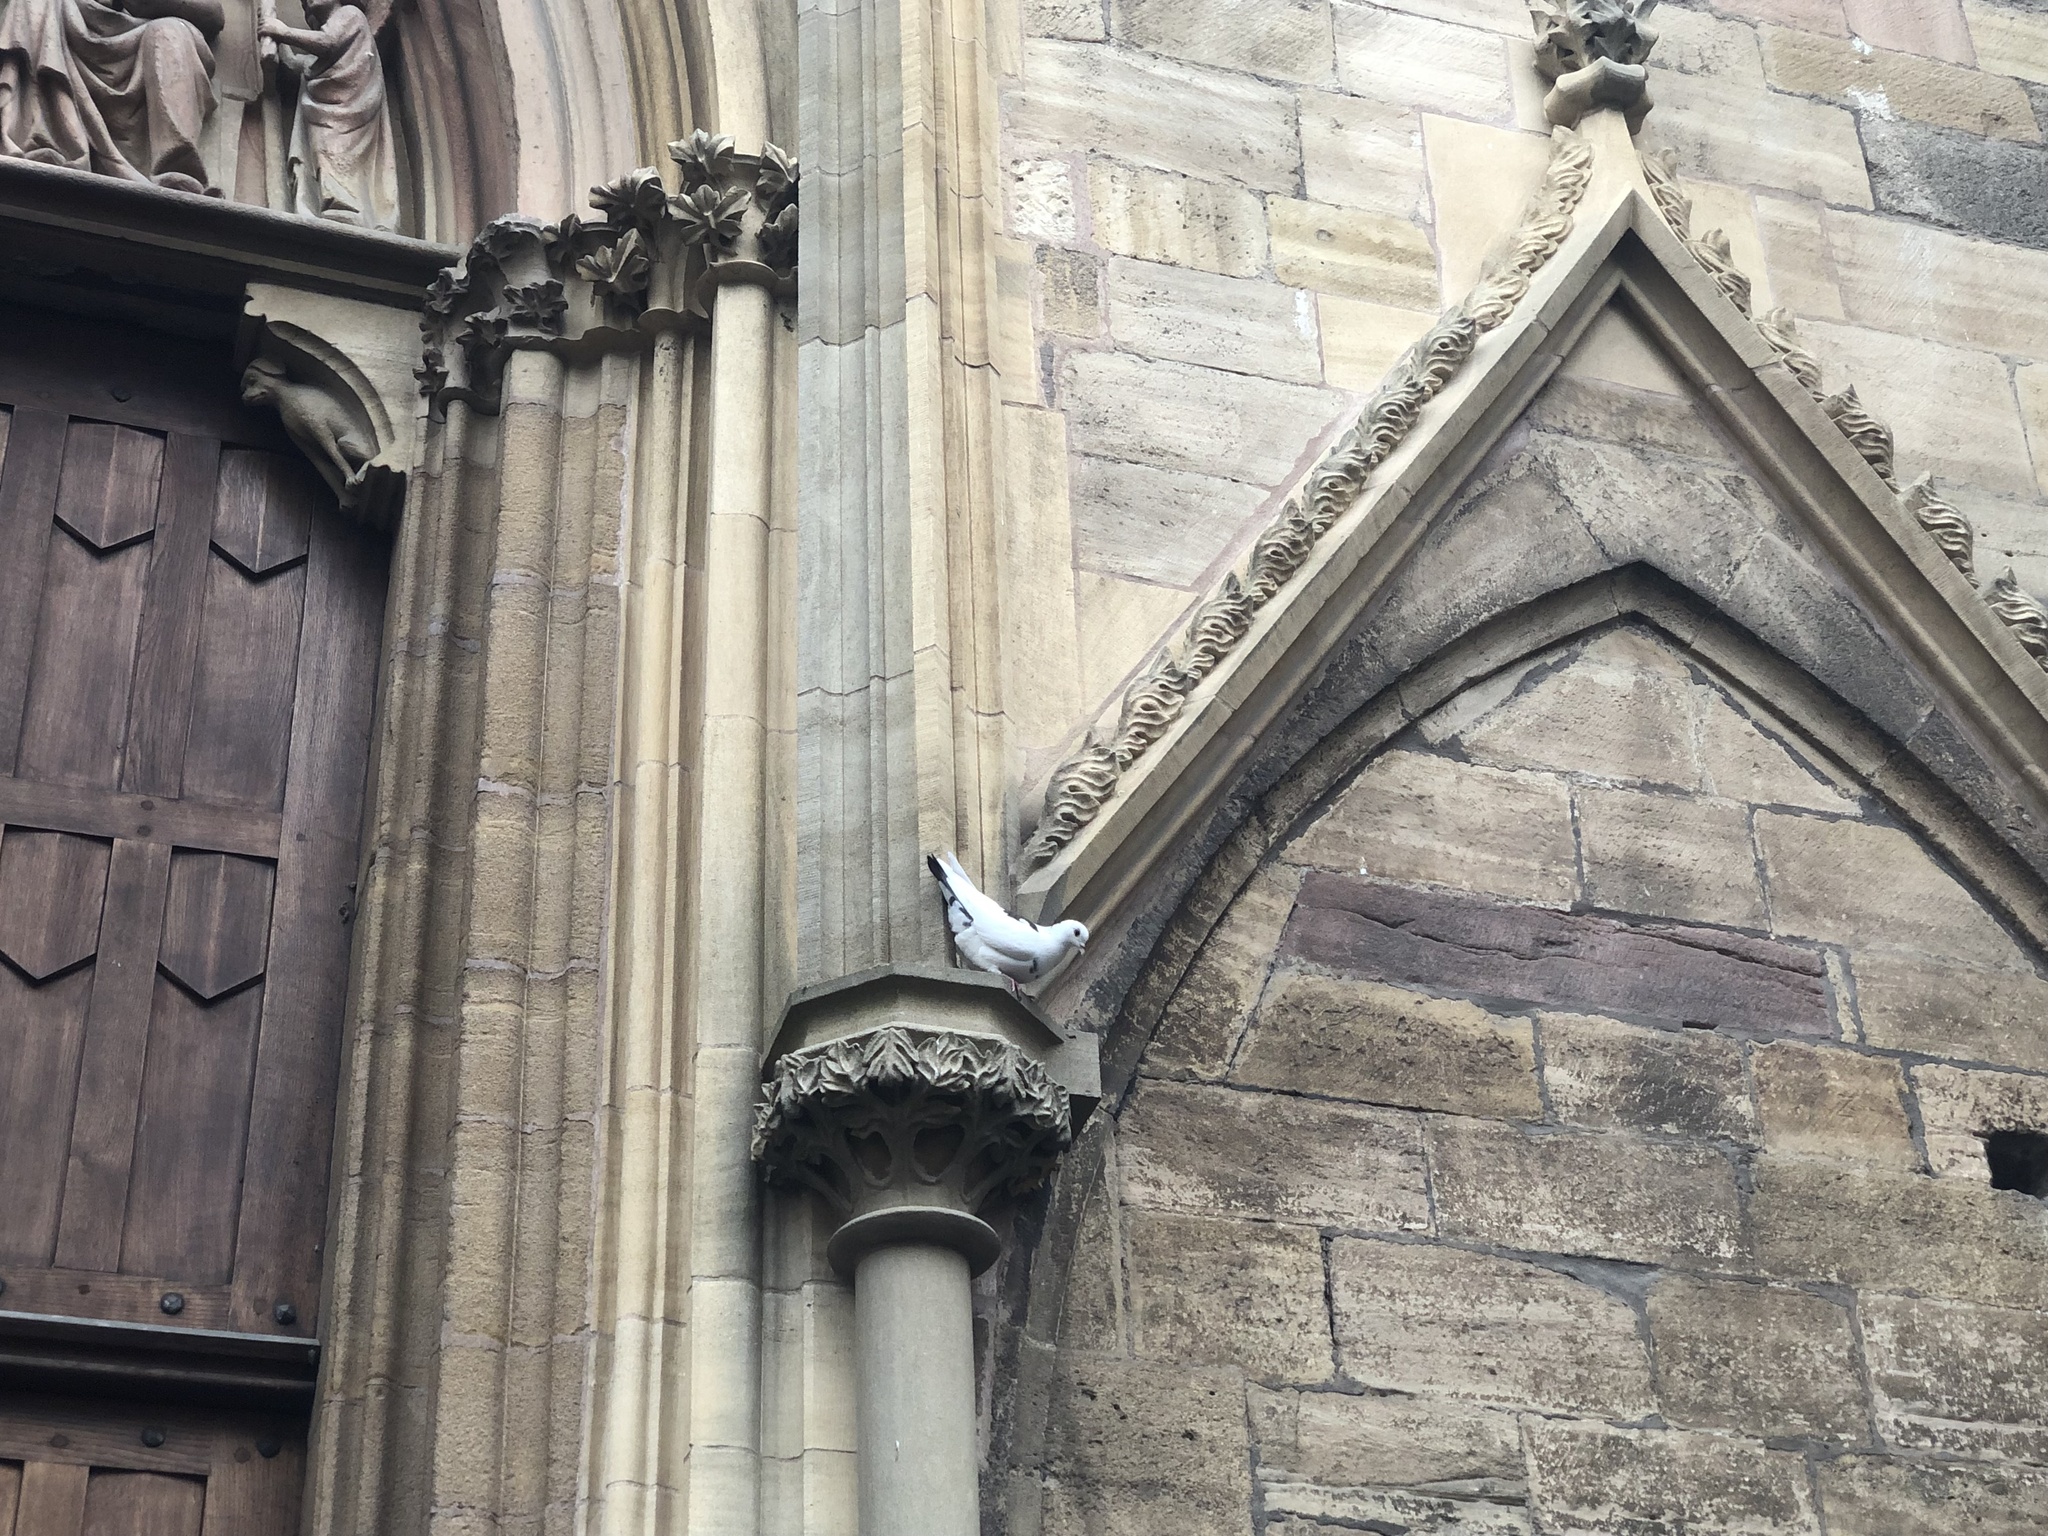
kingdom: Animalia
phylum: Chordata
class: Aves
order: Columbiformes
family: Columbidae
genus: Columba
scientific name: Columba livia
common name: Rock pigeon
